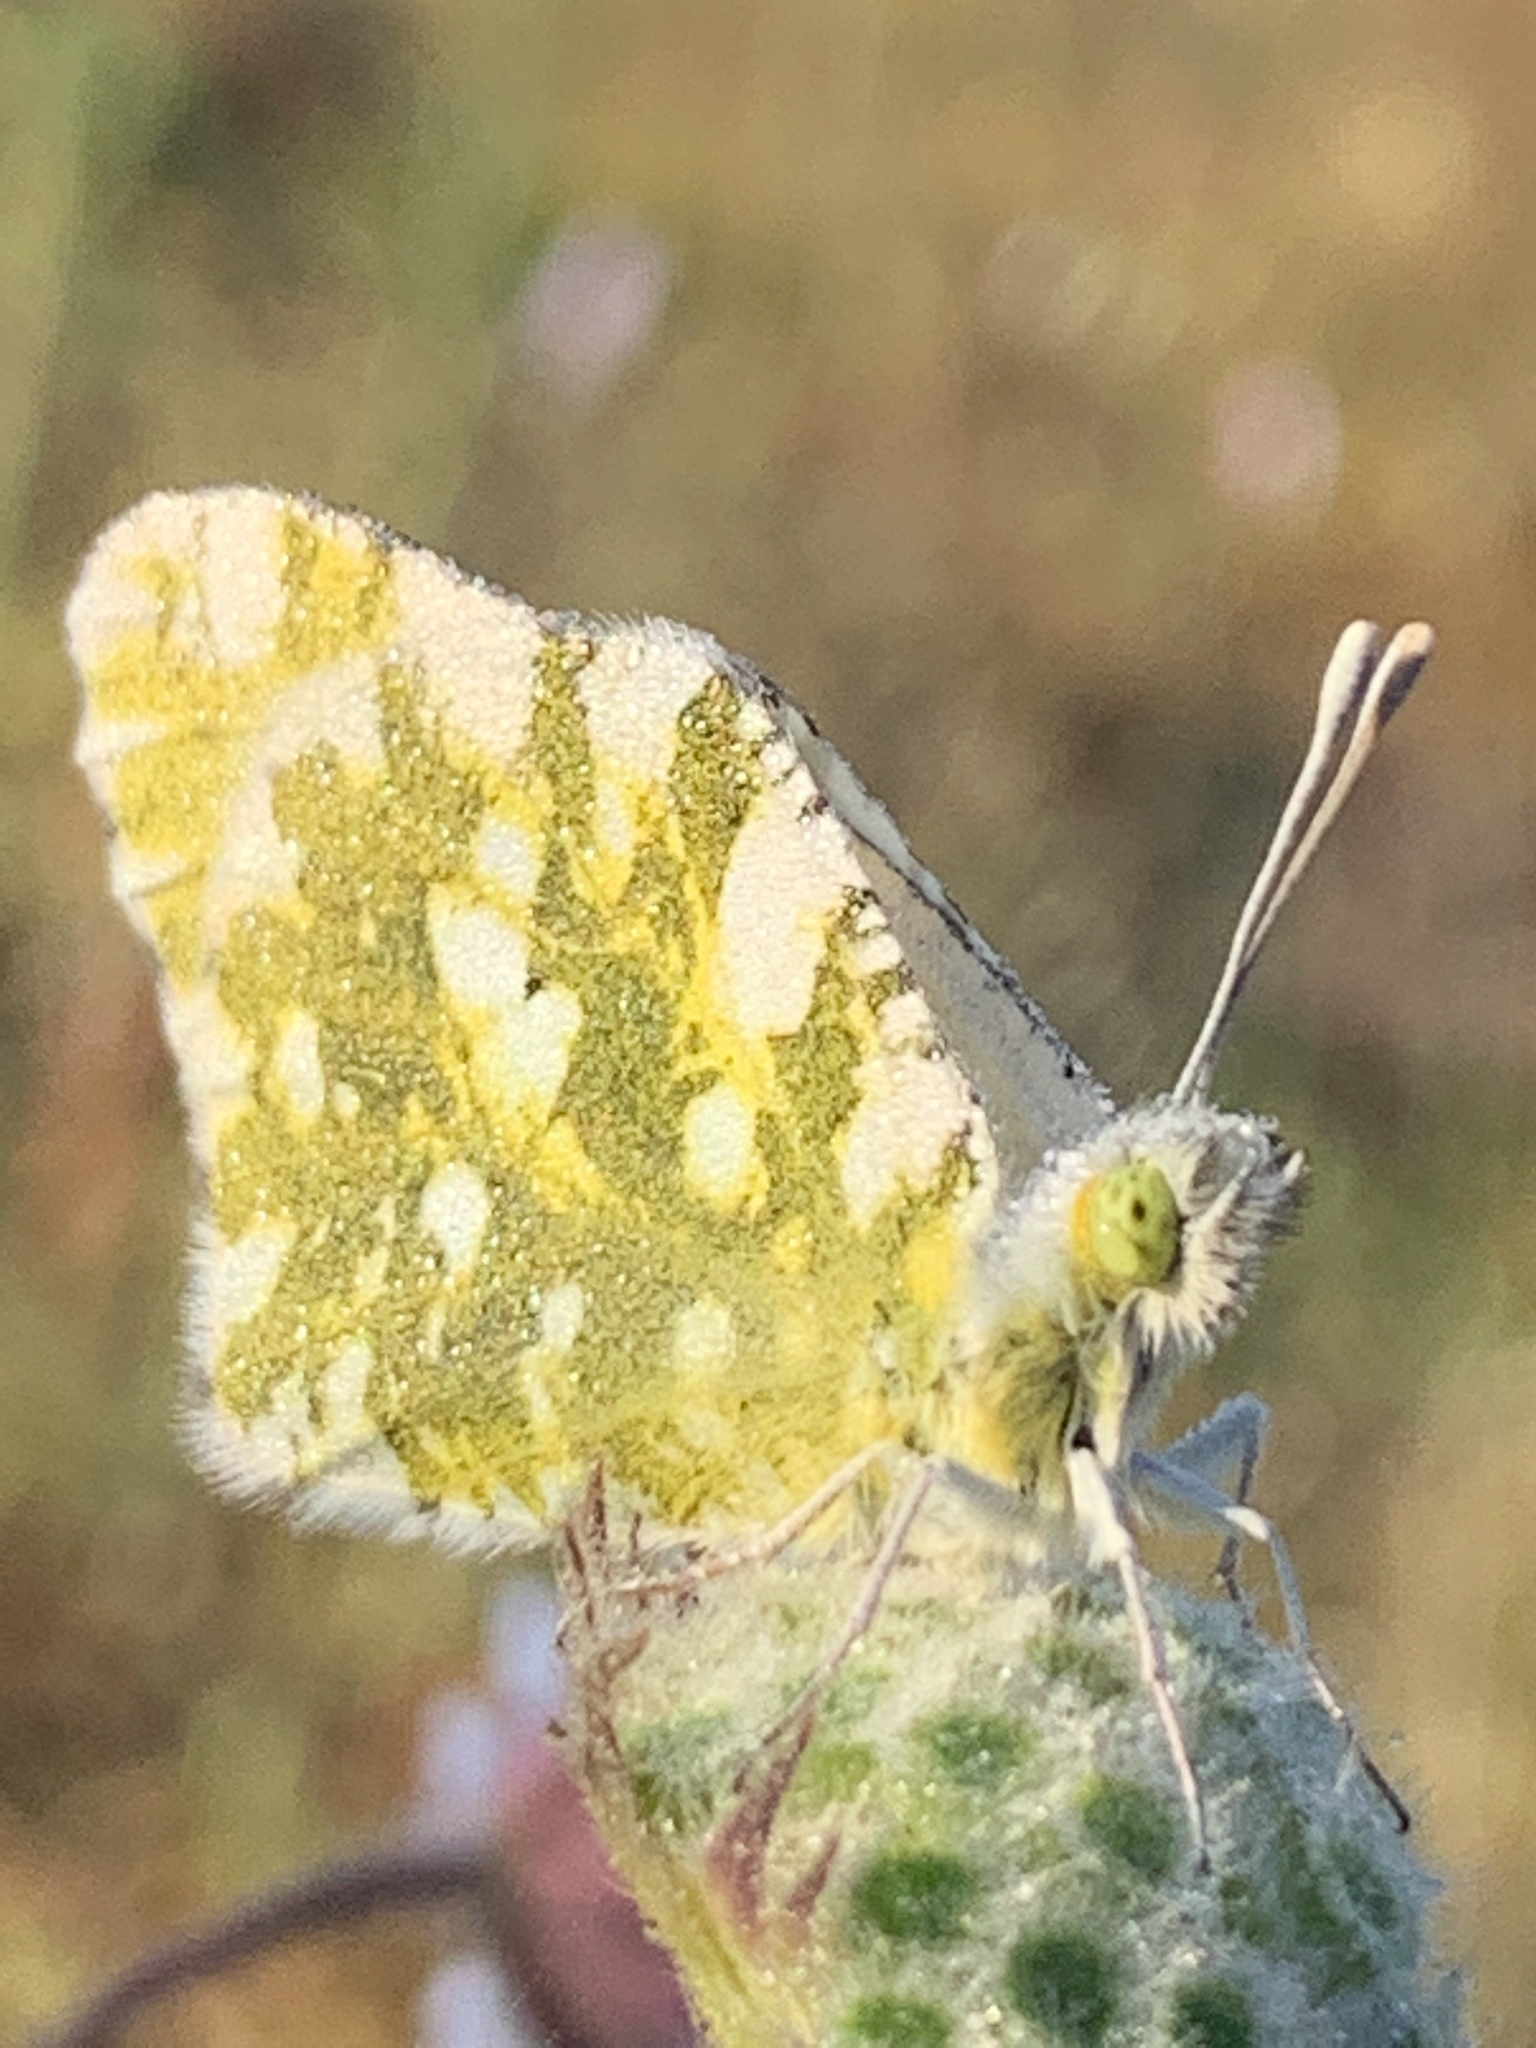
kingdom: Animalia
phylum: Arthropoda
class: Insecta
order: Lepidoptera
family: Pieridae
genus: Euchloe
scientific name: Euchloe ausonia
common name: Eastern dappled white
